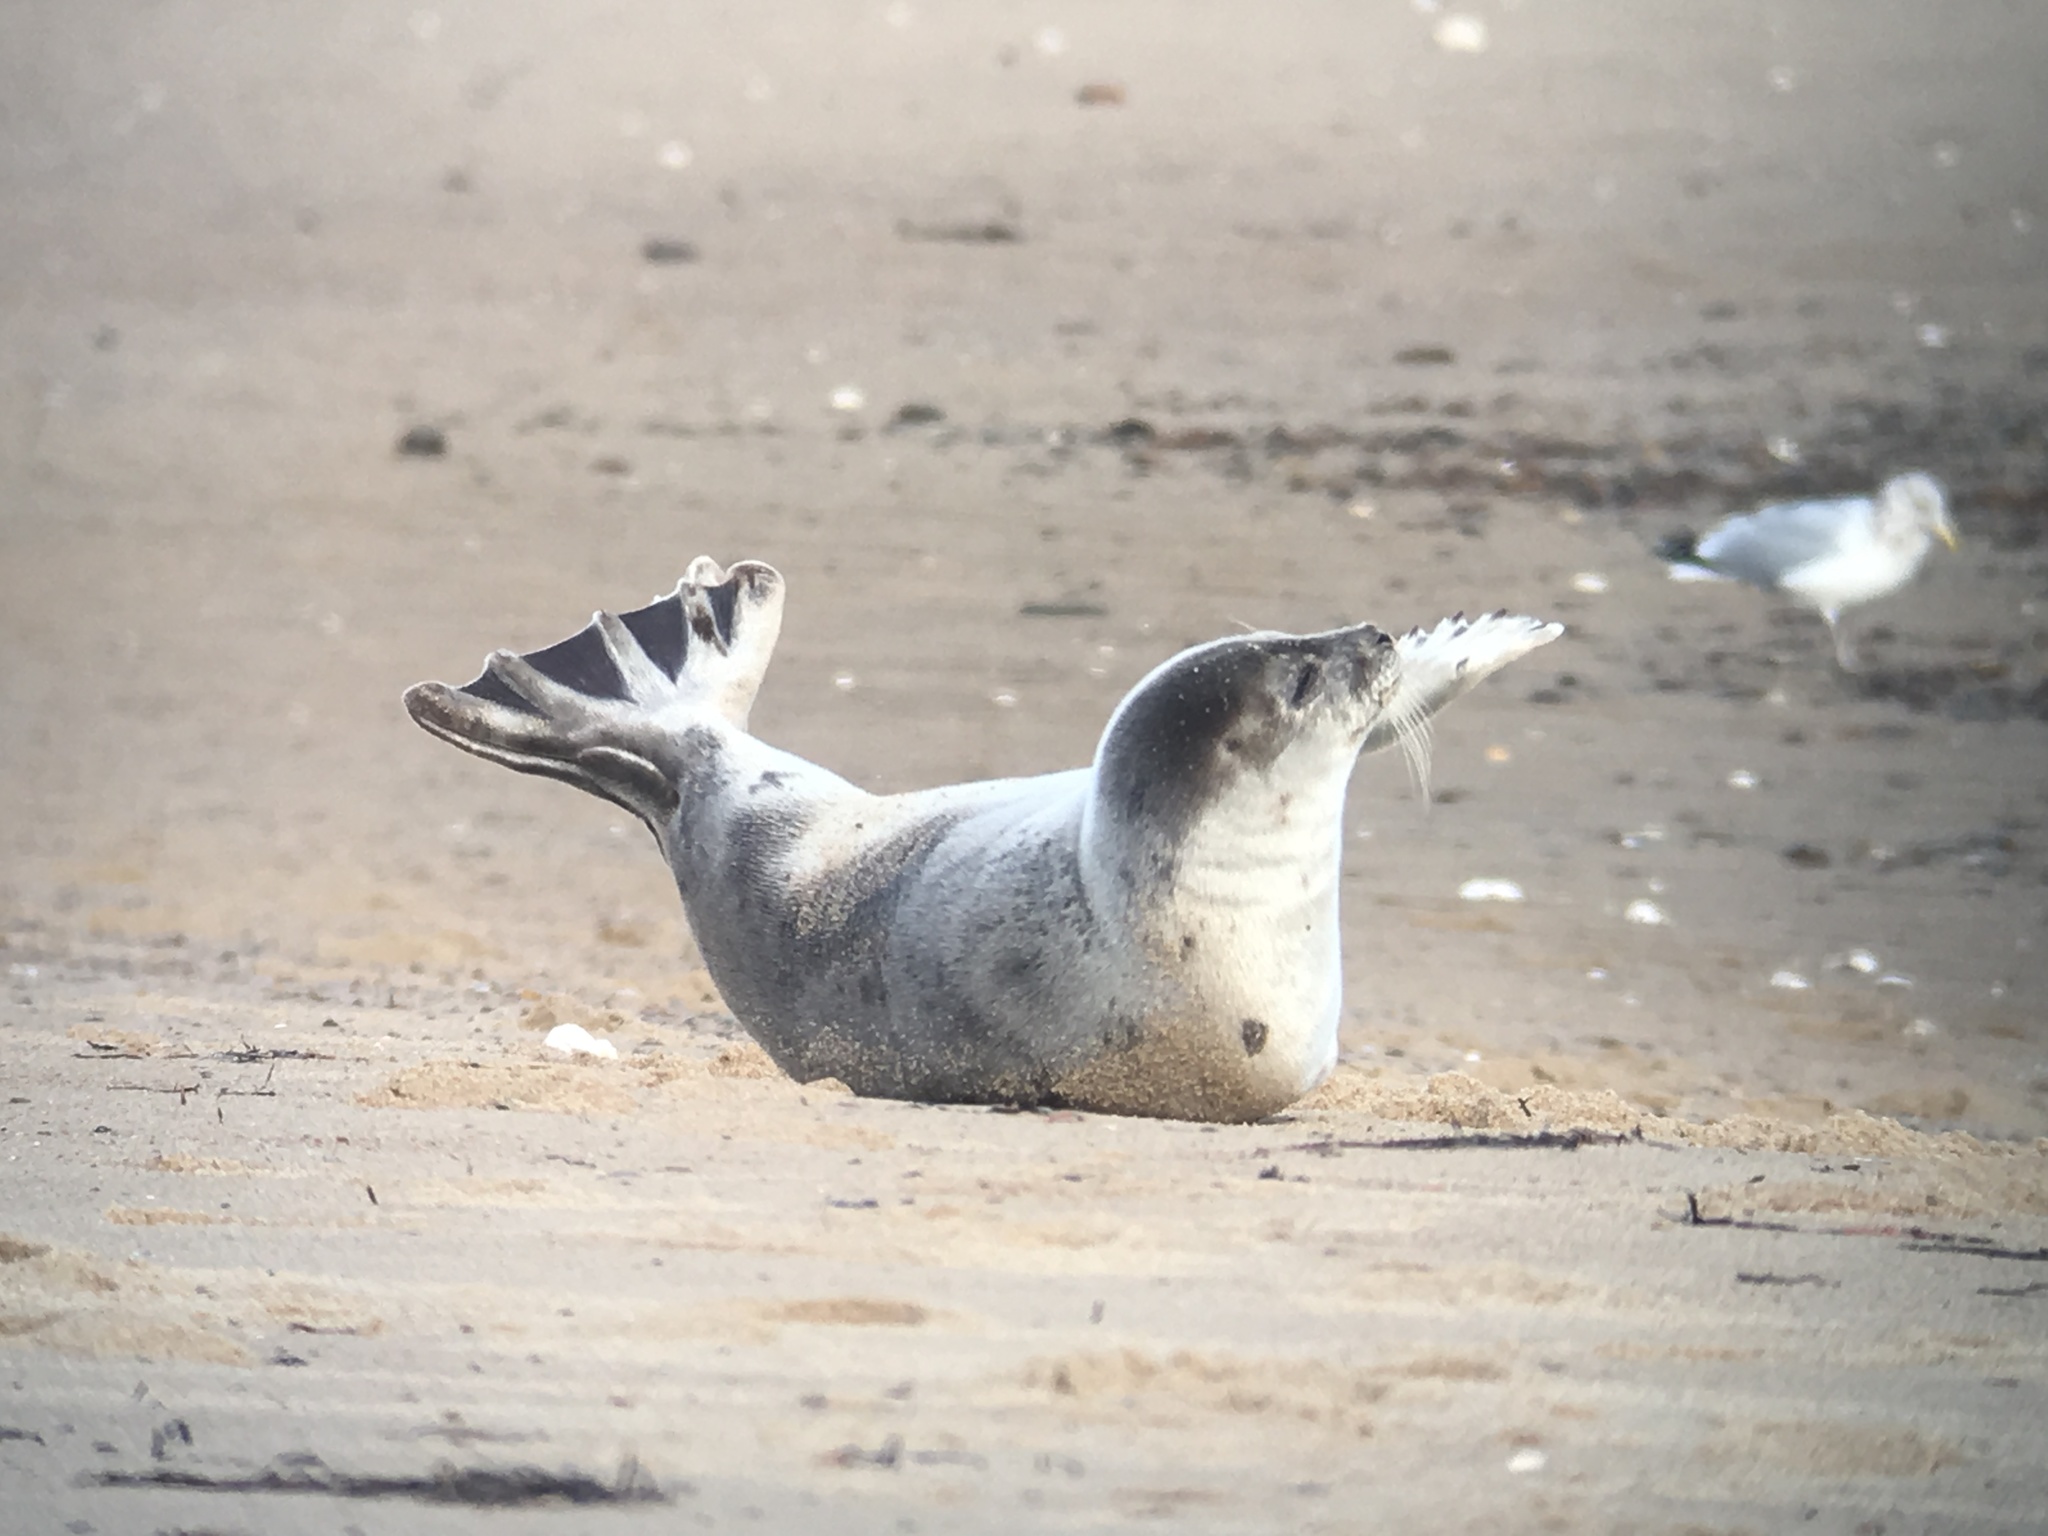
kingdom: Animalia
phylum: Chordata
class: Mammalia
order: Carnivora
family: Phocidae
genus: Pagophilus
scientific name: Pagophilus groenlandicus
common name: Harp seal
